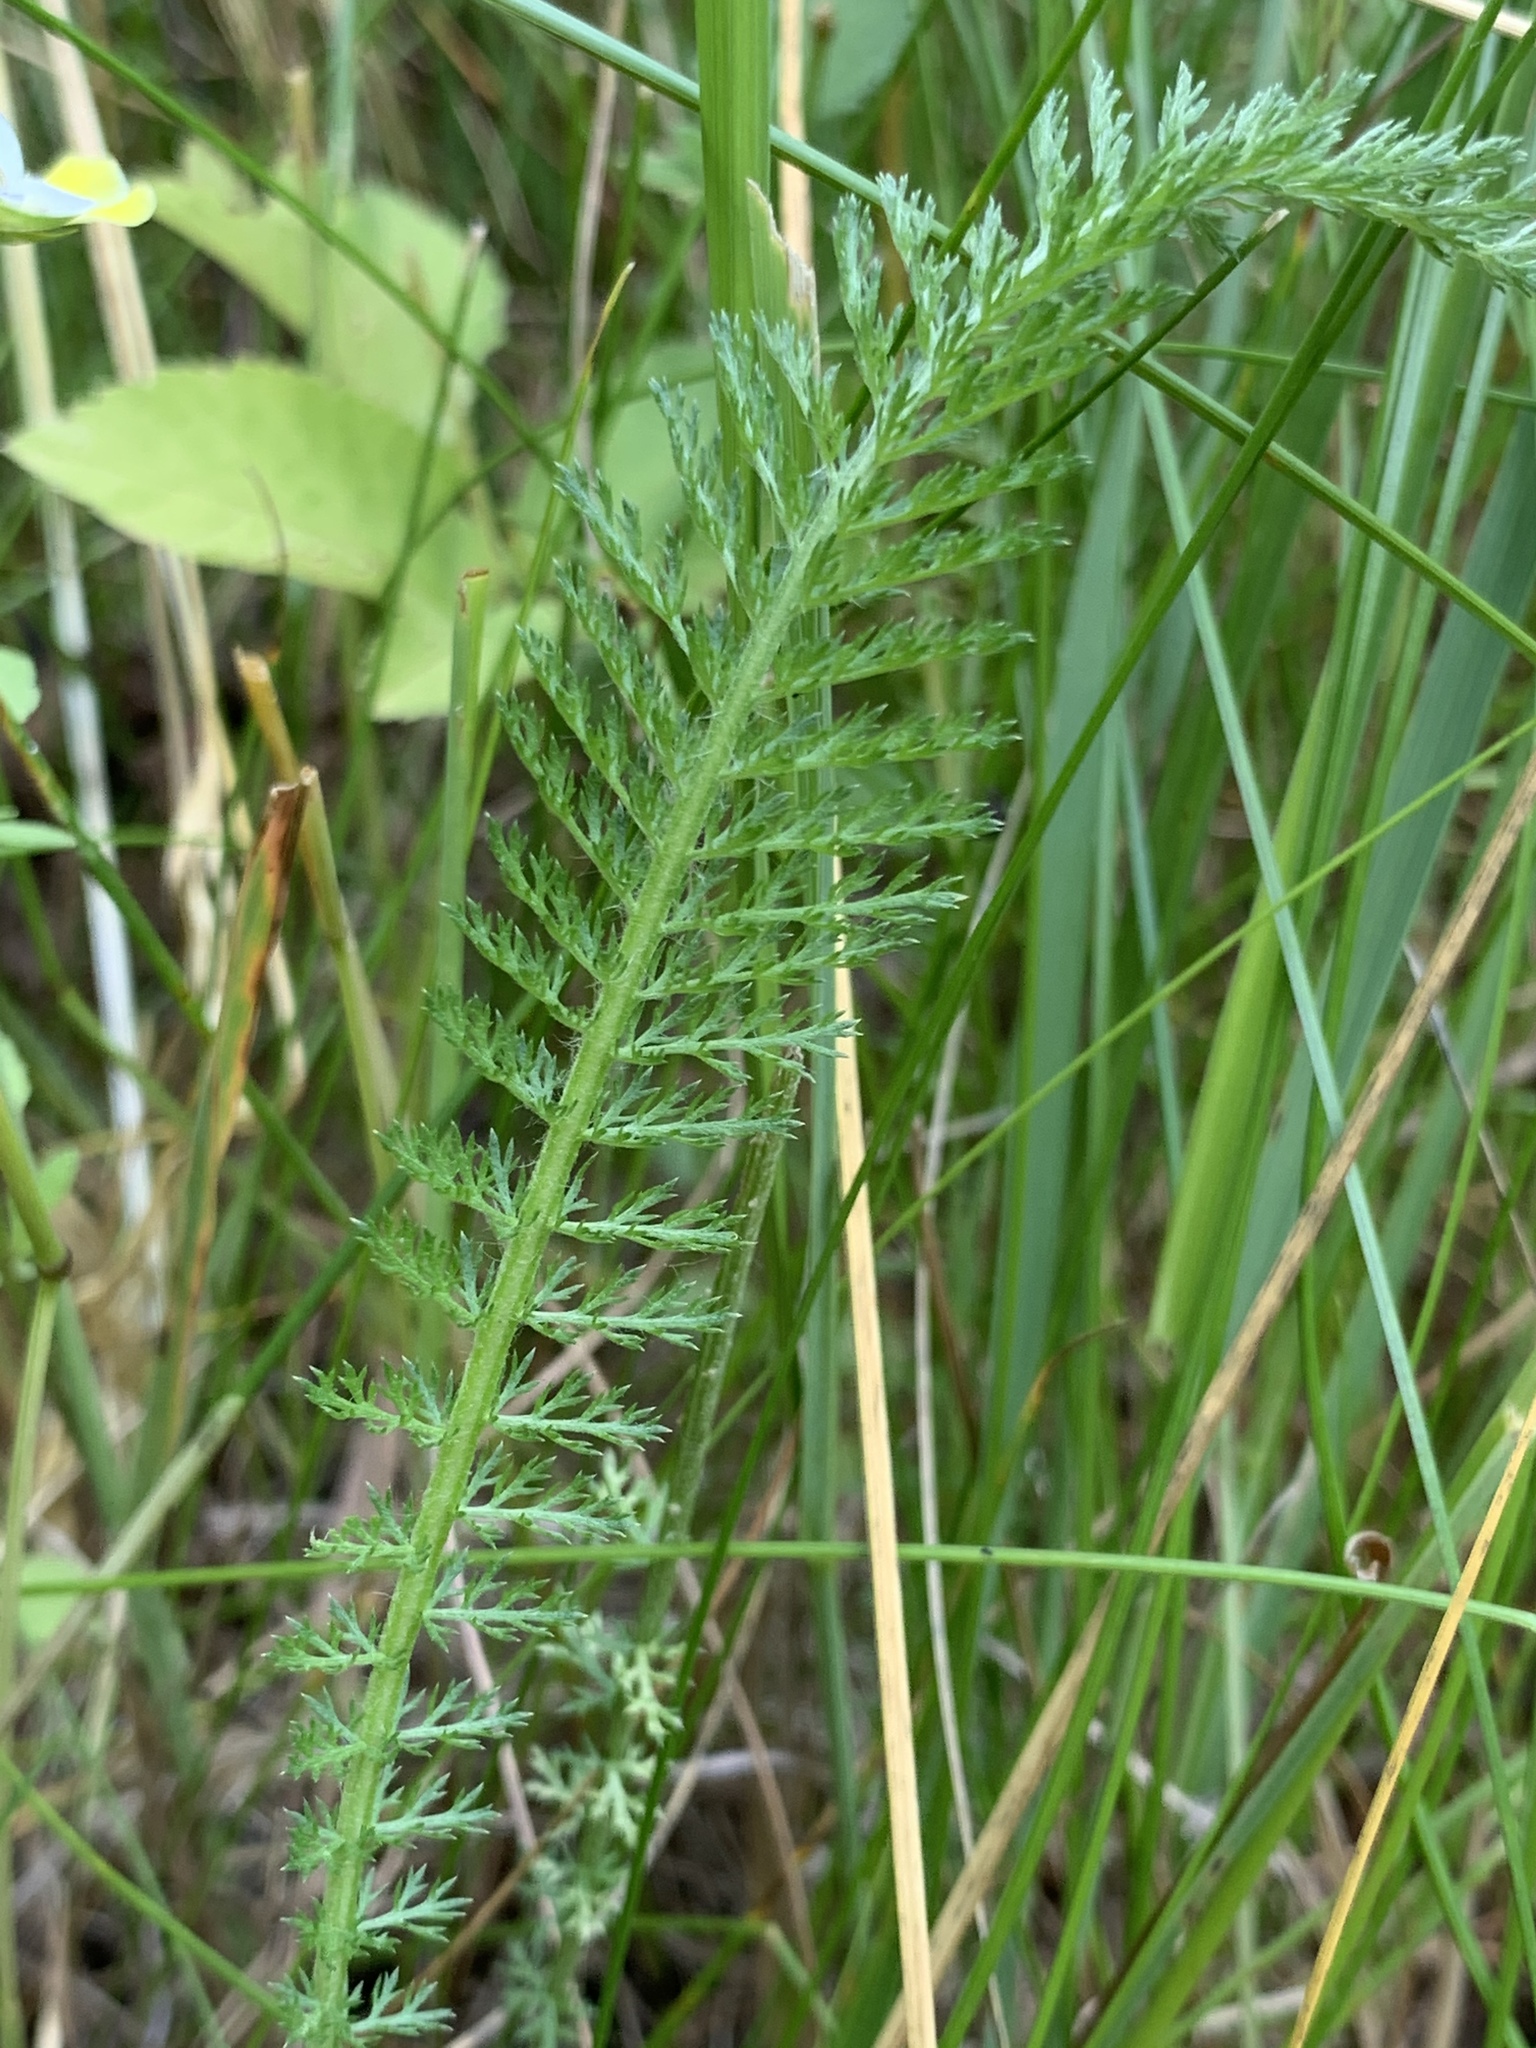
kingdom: Plantae
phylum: Tracheophyta
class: Magnoliopsida
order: Asterales
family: Asteraceae
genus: Achillea
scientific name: Achillea millefolium
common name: Yarrow
